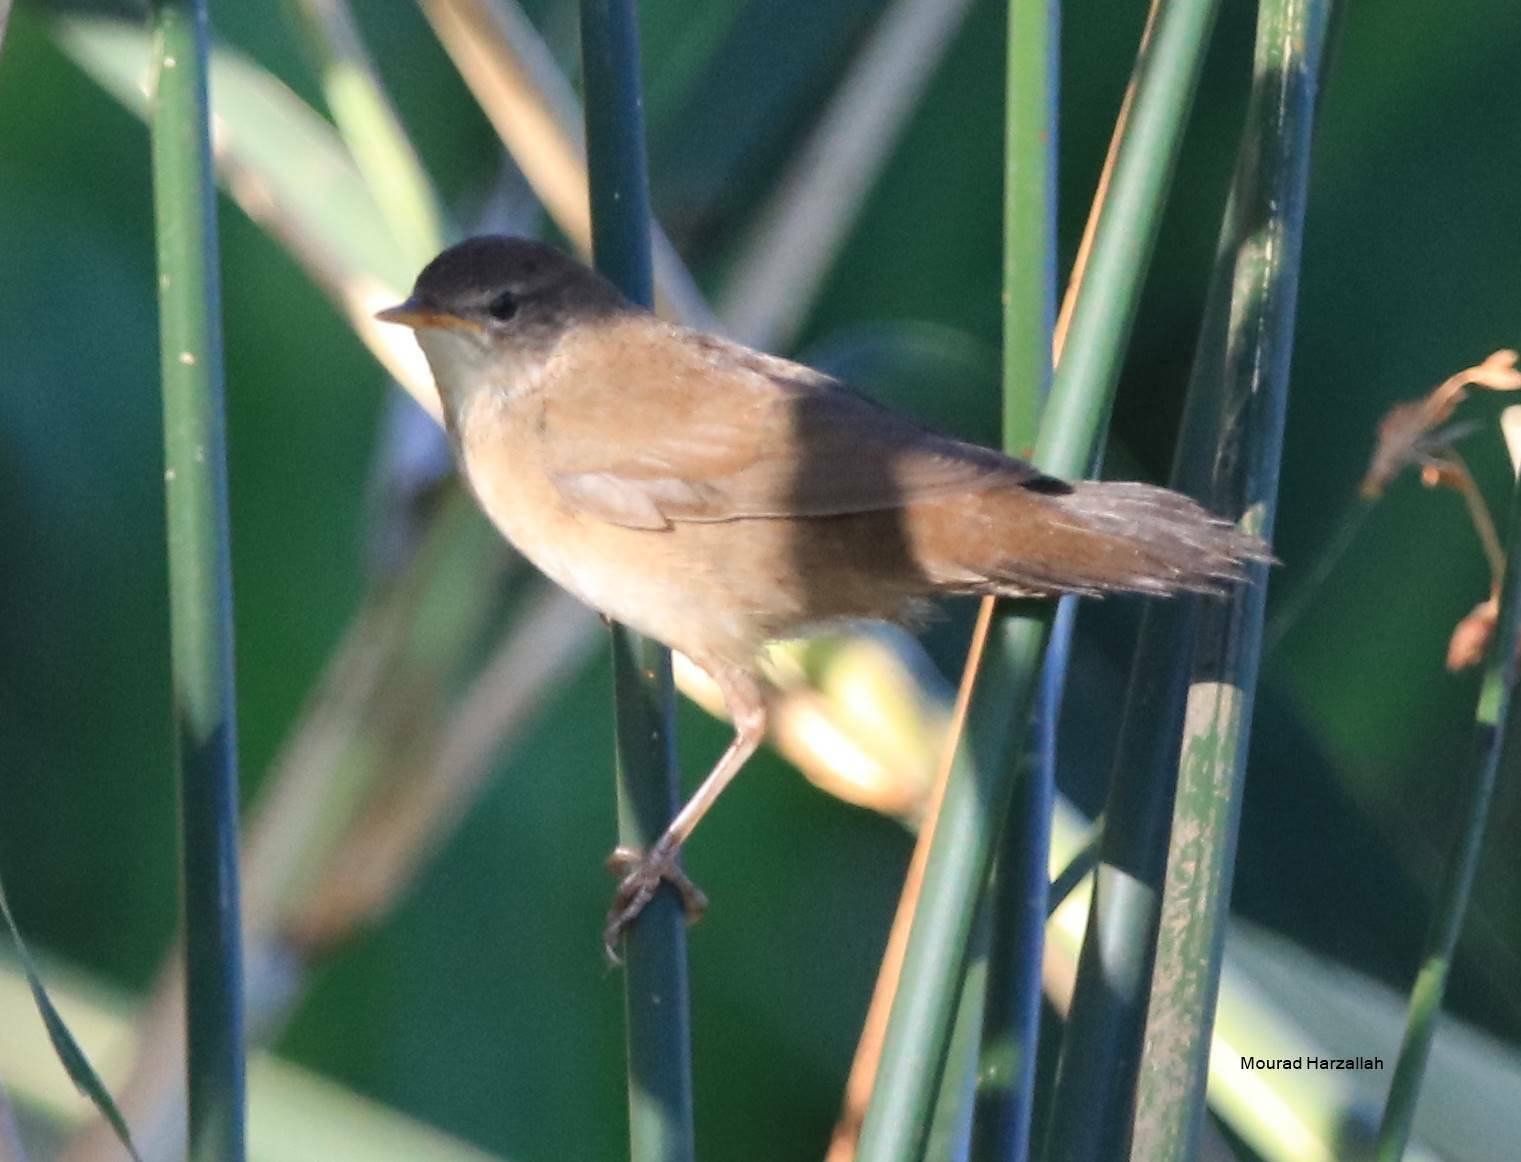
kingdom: Animalia
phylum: Chordata
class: Aves
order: Passeriformes
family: Locustellidae
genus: Locustella
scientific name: Locustella luscinioides
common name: Savi's warbler
